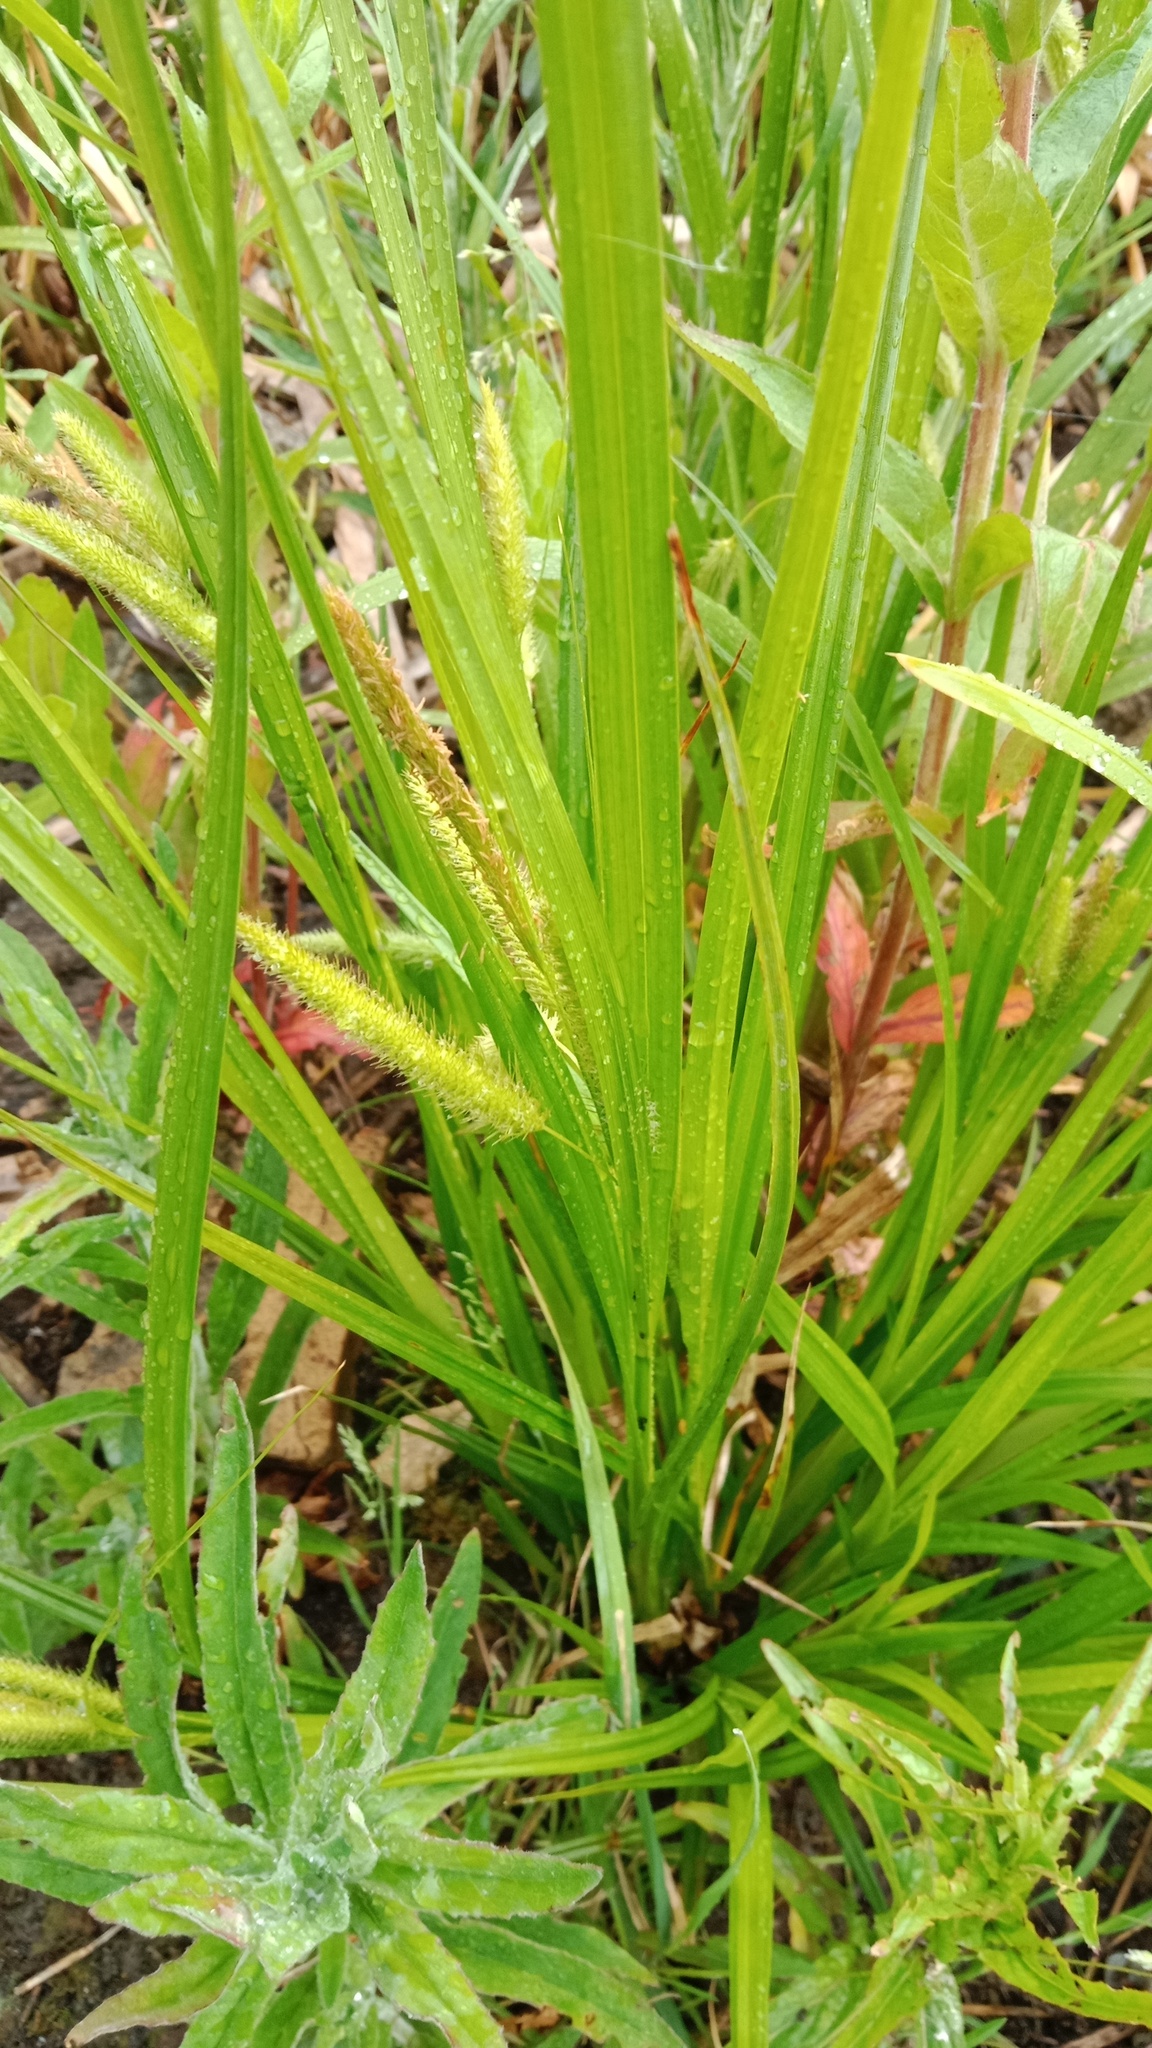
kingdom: Plantae
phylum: Tracheophyta
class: Liliopsida
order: Poales
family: Cyperaceae
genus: Carex
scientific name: Carex pseudocyperus
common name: Cyperus sedge
